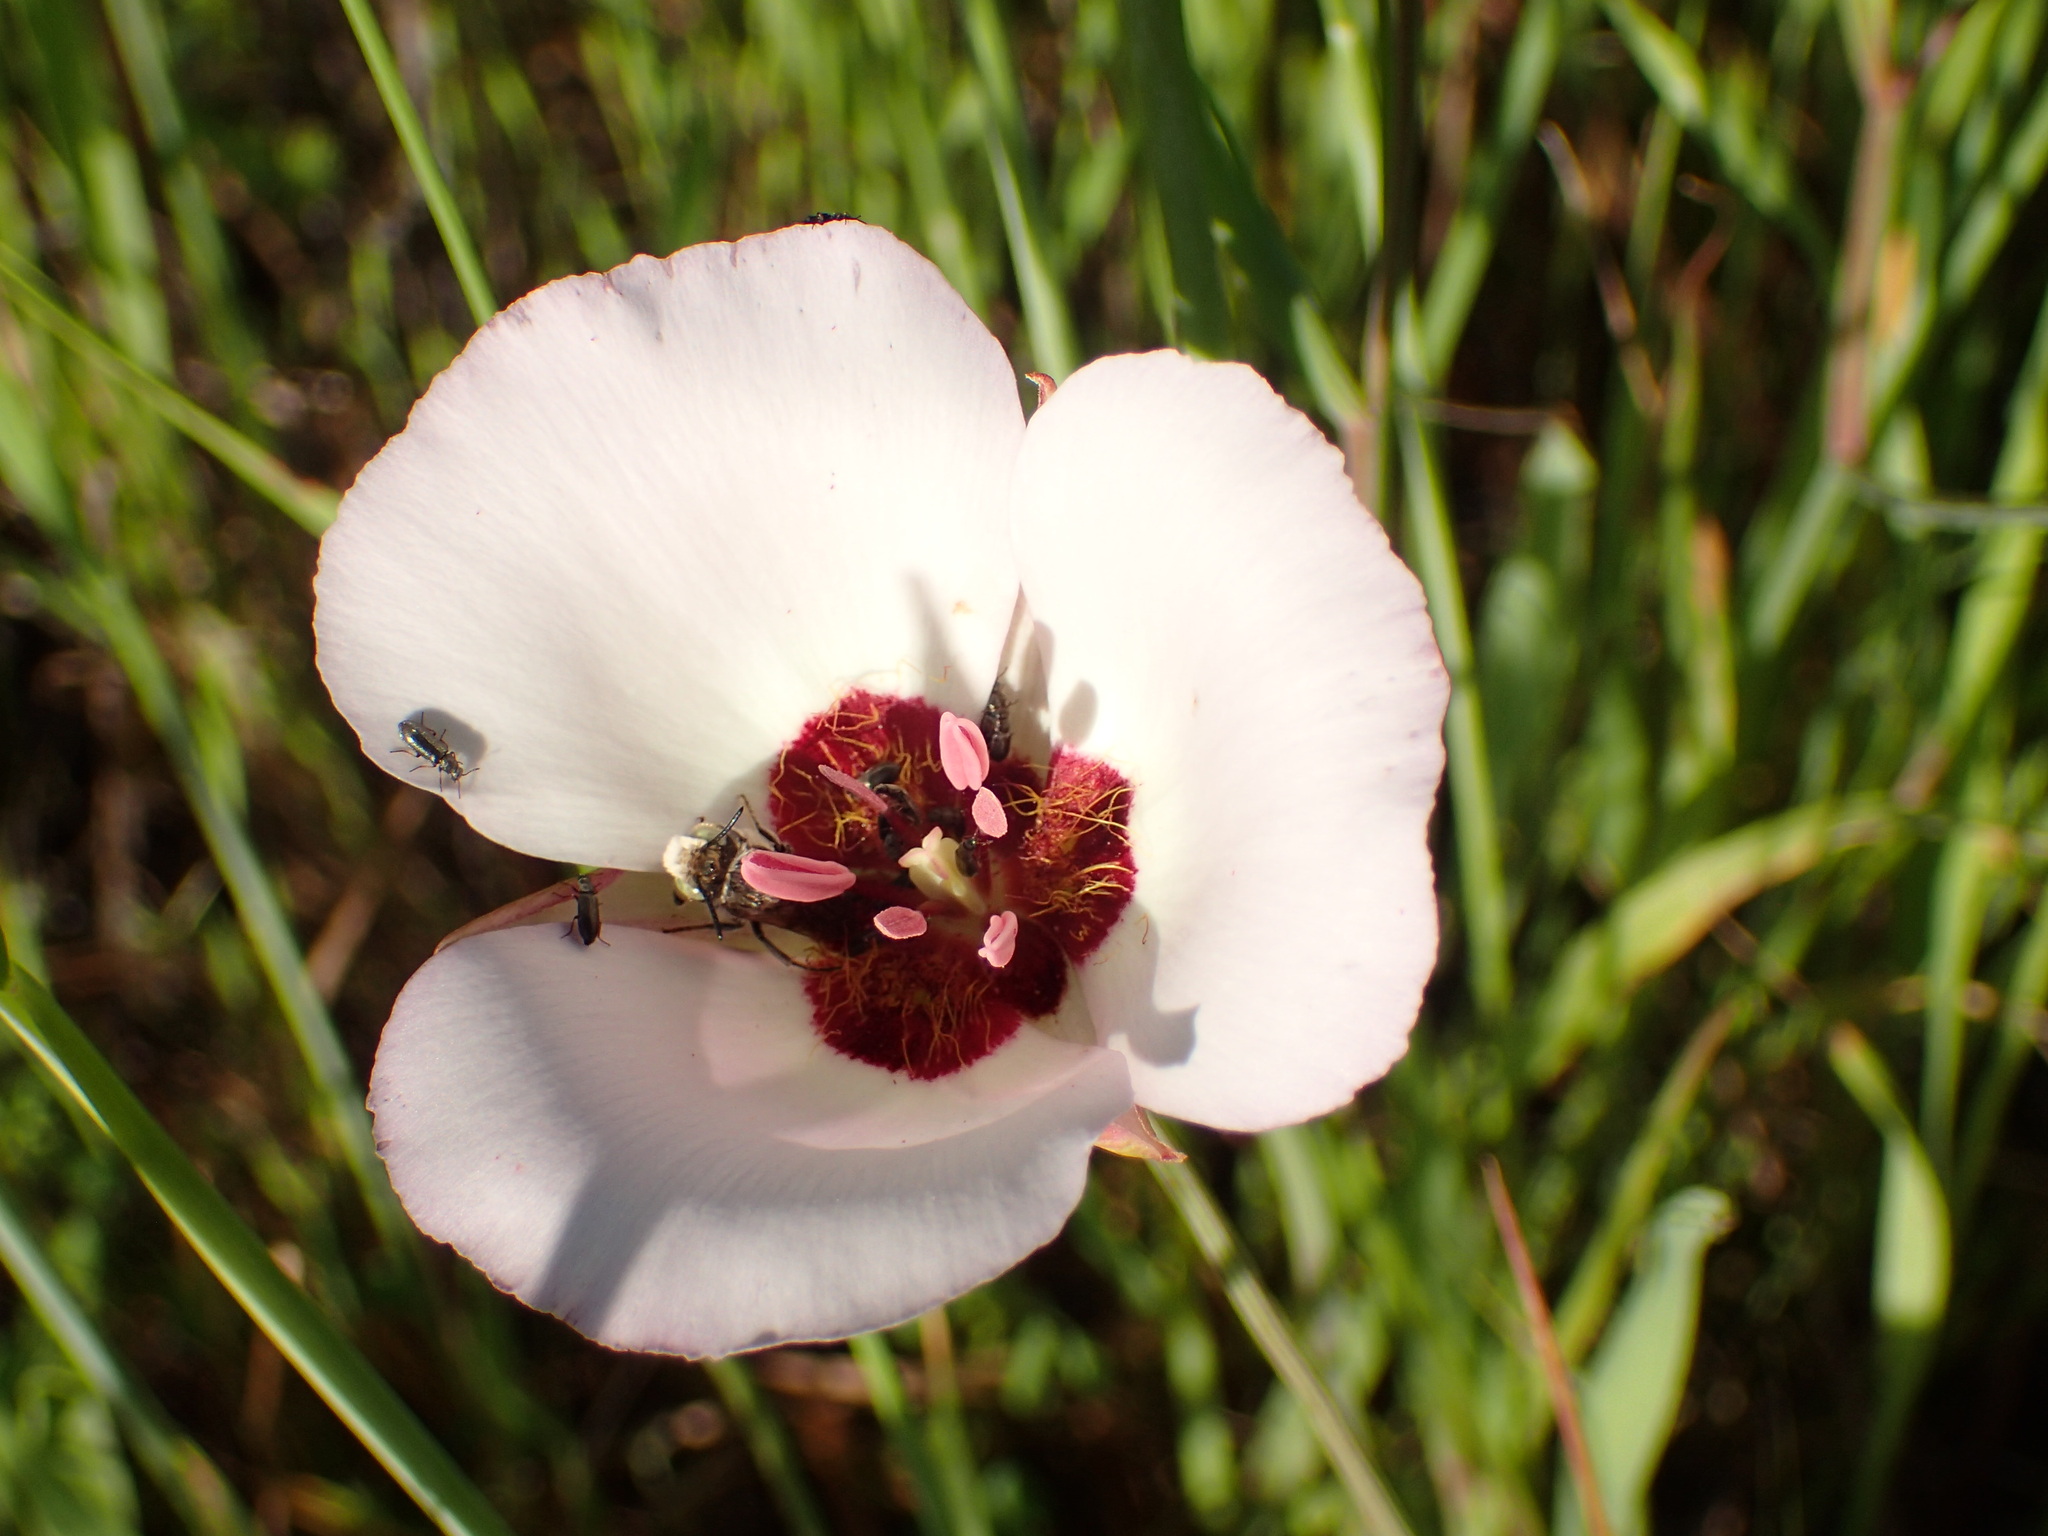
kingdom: Plantae
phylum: Tracheophyta
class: Liliopsida
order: Liliales
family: Liliaceae
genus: Calochortus
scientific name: Calochortus catalinae
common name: Catalina mariposa-lily
